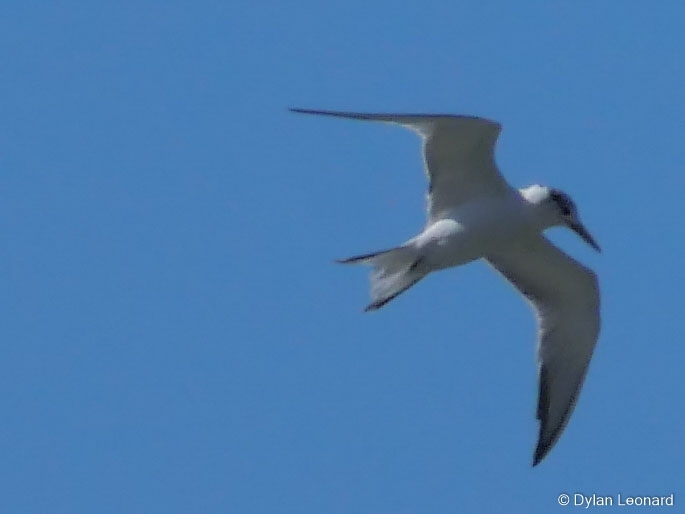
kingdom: Animalia
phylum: Chordata
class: Aves
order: Charadriiformes
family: Laridae
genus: Thalasseus
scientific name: Thalasseus bergii
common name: Greater crested tern
